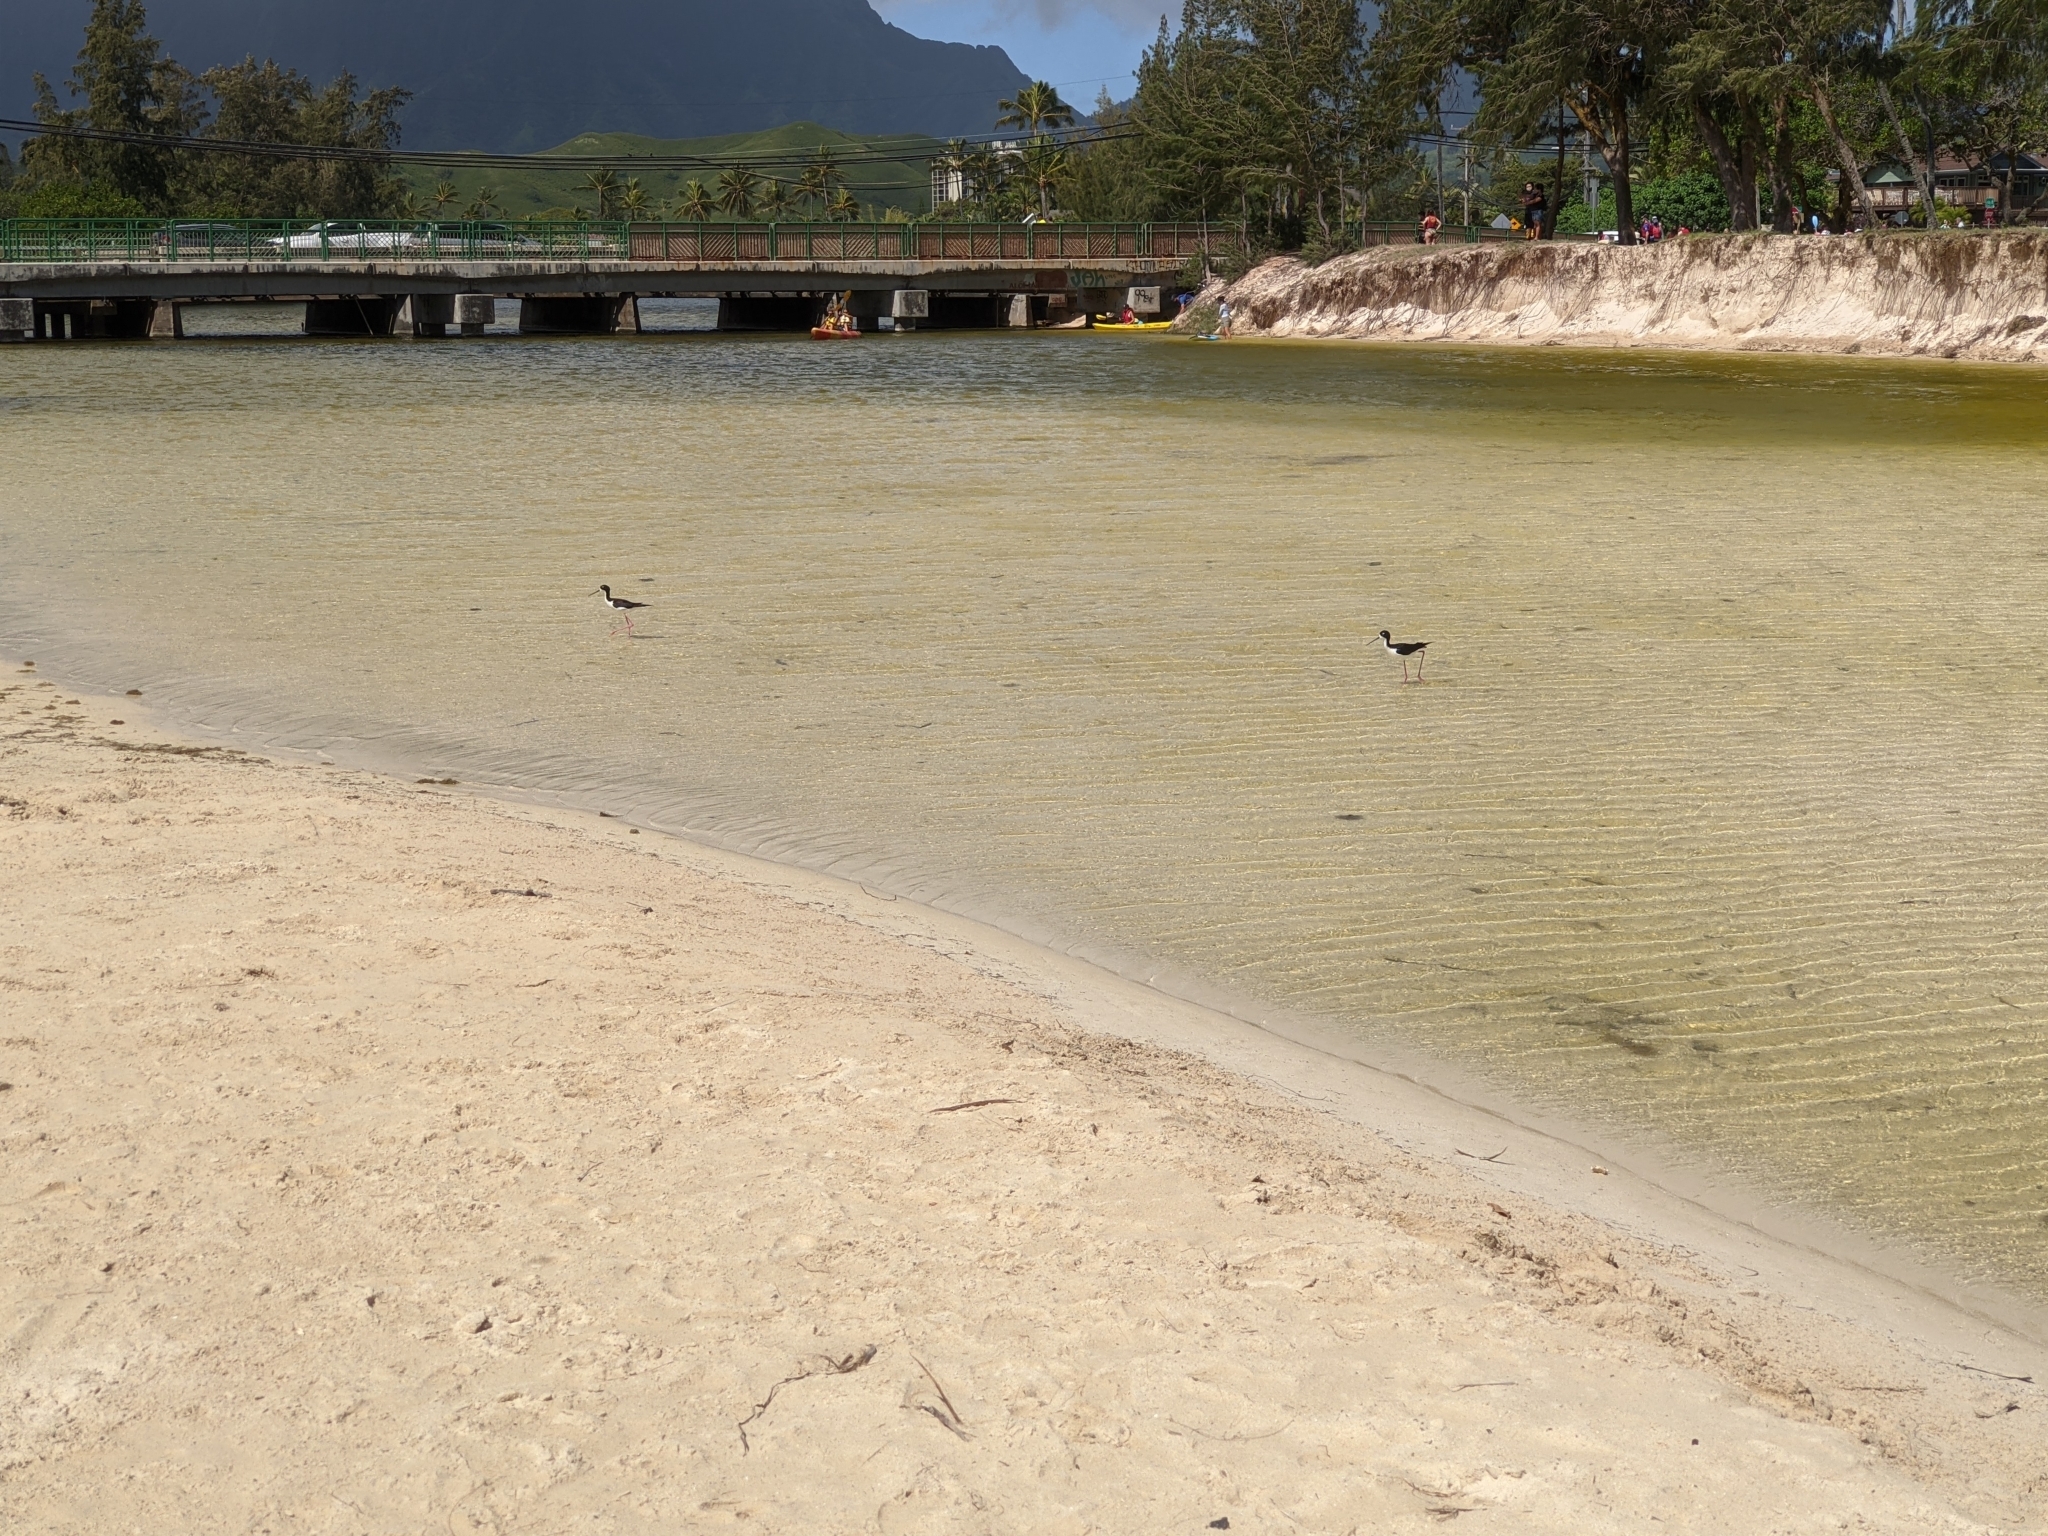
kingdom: Animalia
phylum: Chordata
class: Aves
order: Charadriiformes
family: Recurvirostridae
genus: Himantopus
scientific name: Himantopus mexicanus
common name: Black-necked stilt
